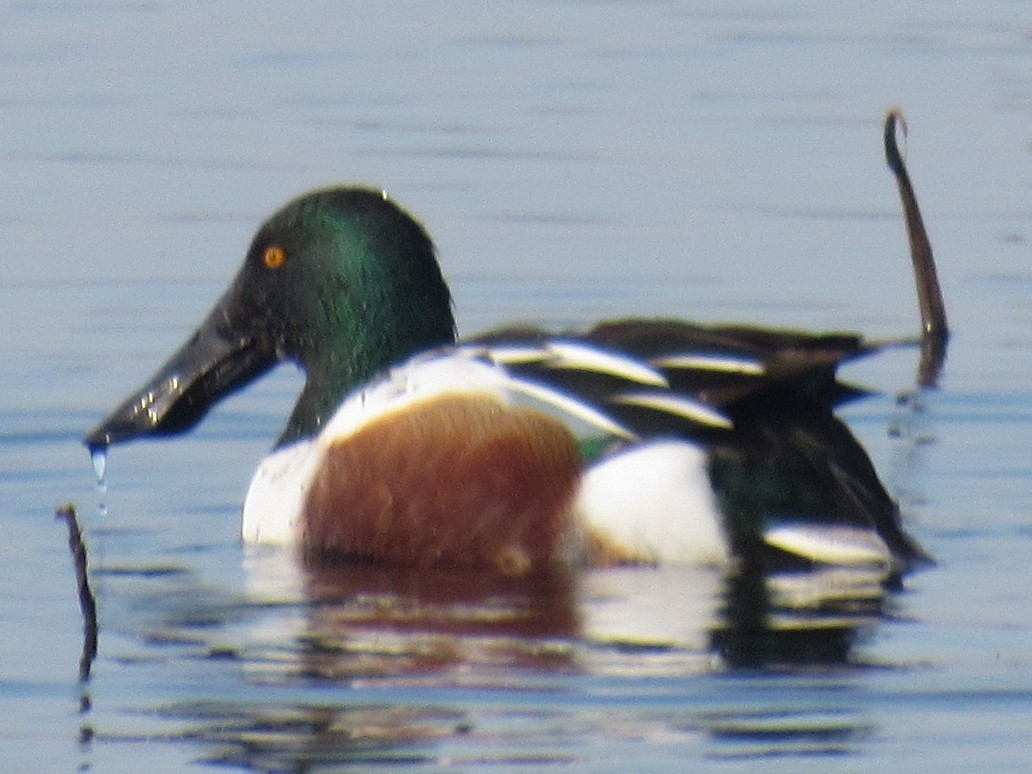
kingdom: Animalia
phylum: Chordata
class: Aves
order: Anseriformes
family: Anatidae
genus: Spatula
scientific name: Spatula clypeata
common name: Northern shoveler
